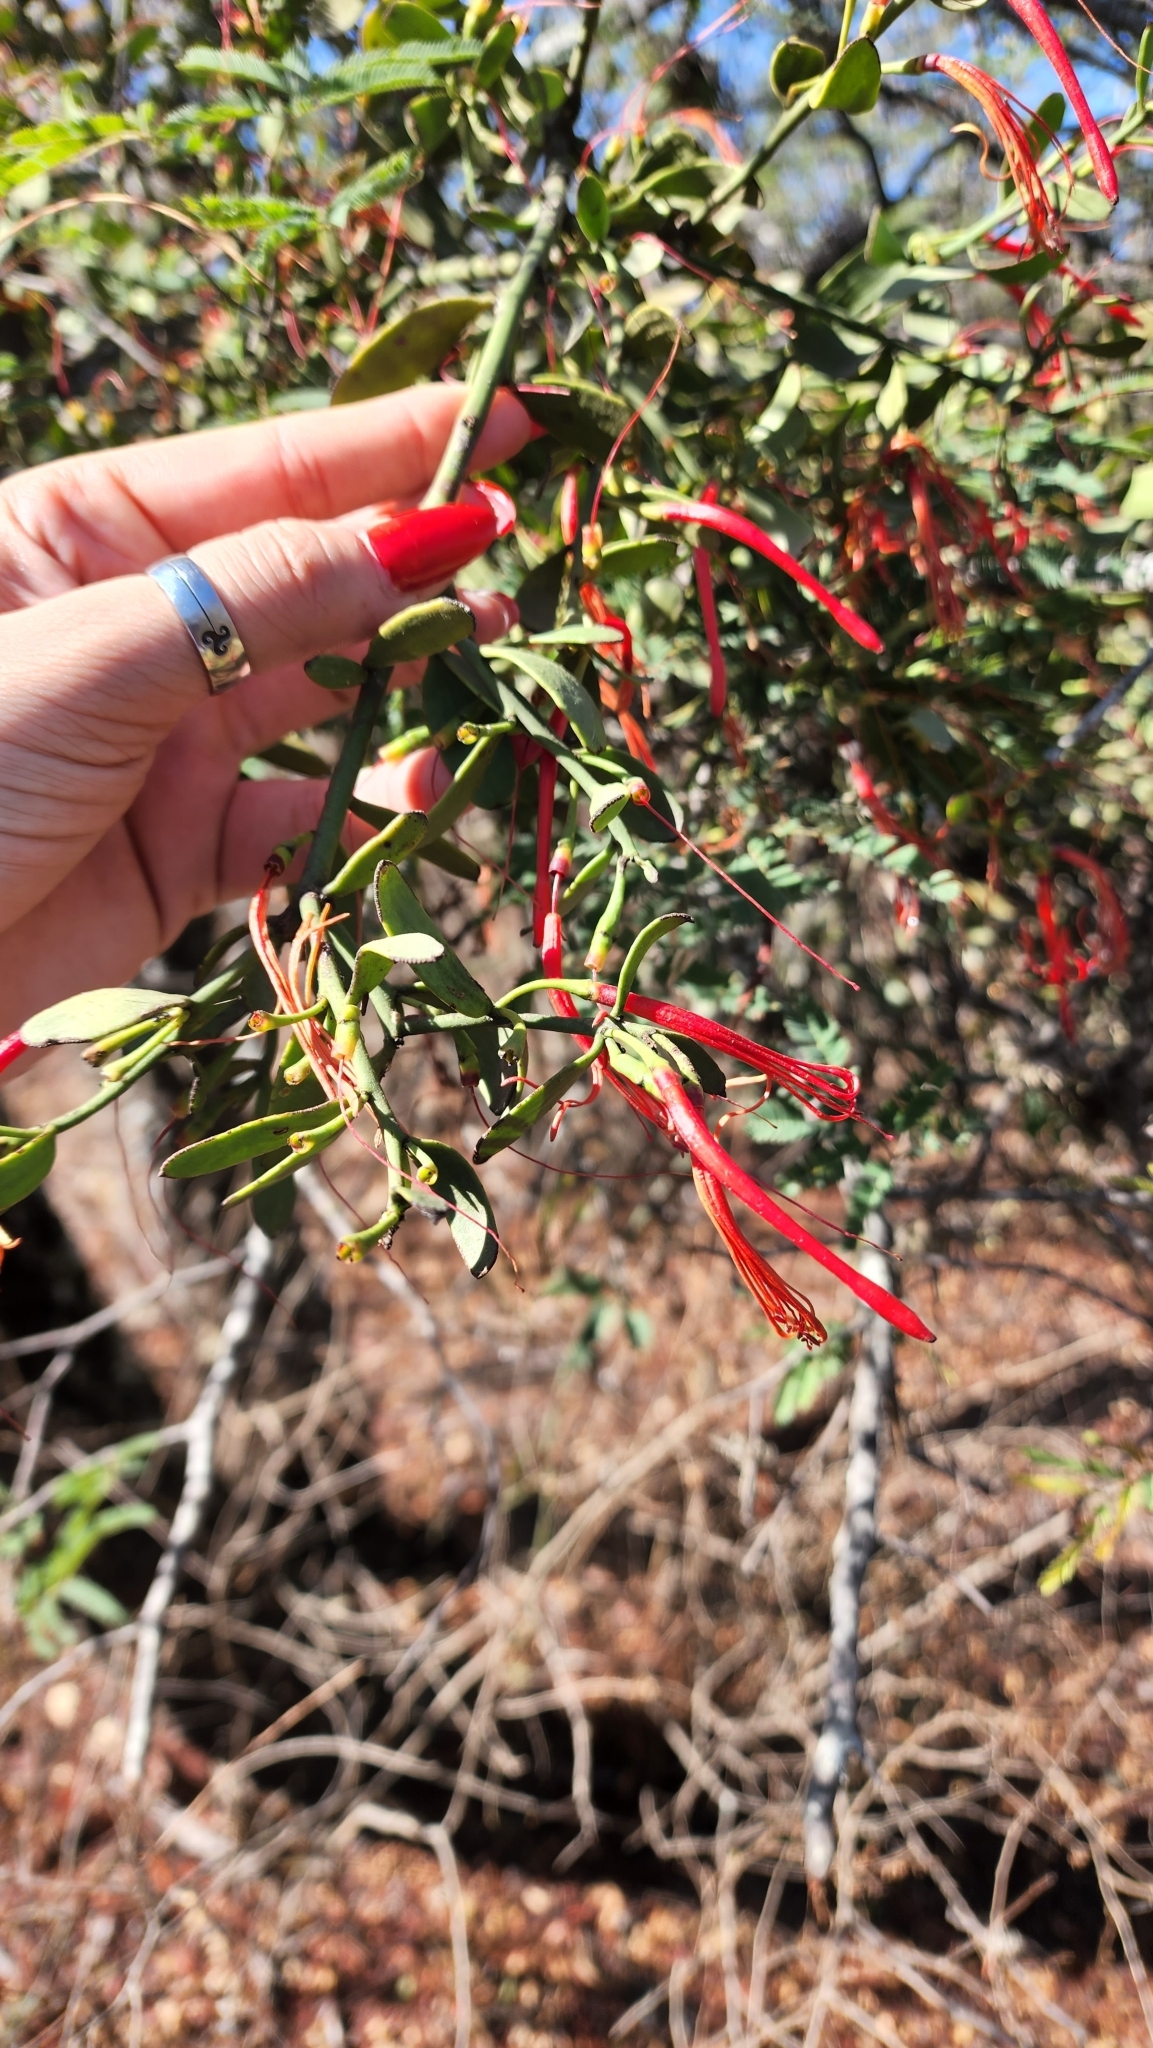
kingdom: Plantae
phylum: Tracheophyta
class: Magnoliopsida
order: Santalales
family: Loranthaceae
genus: Ligaria
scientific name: Ligaria cuneifolia
